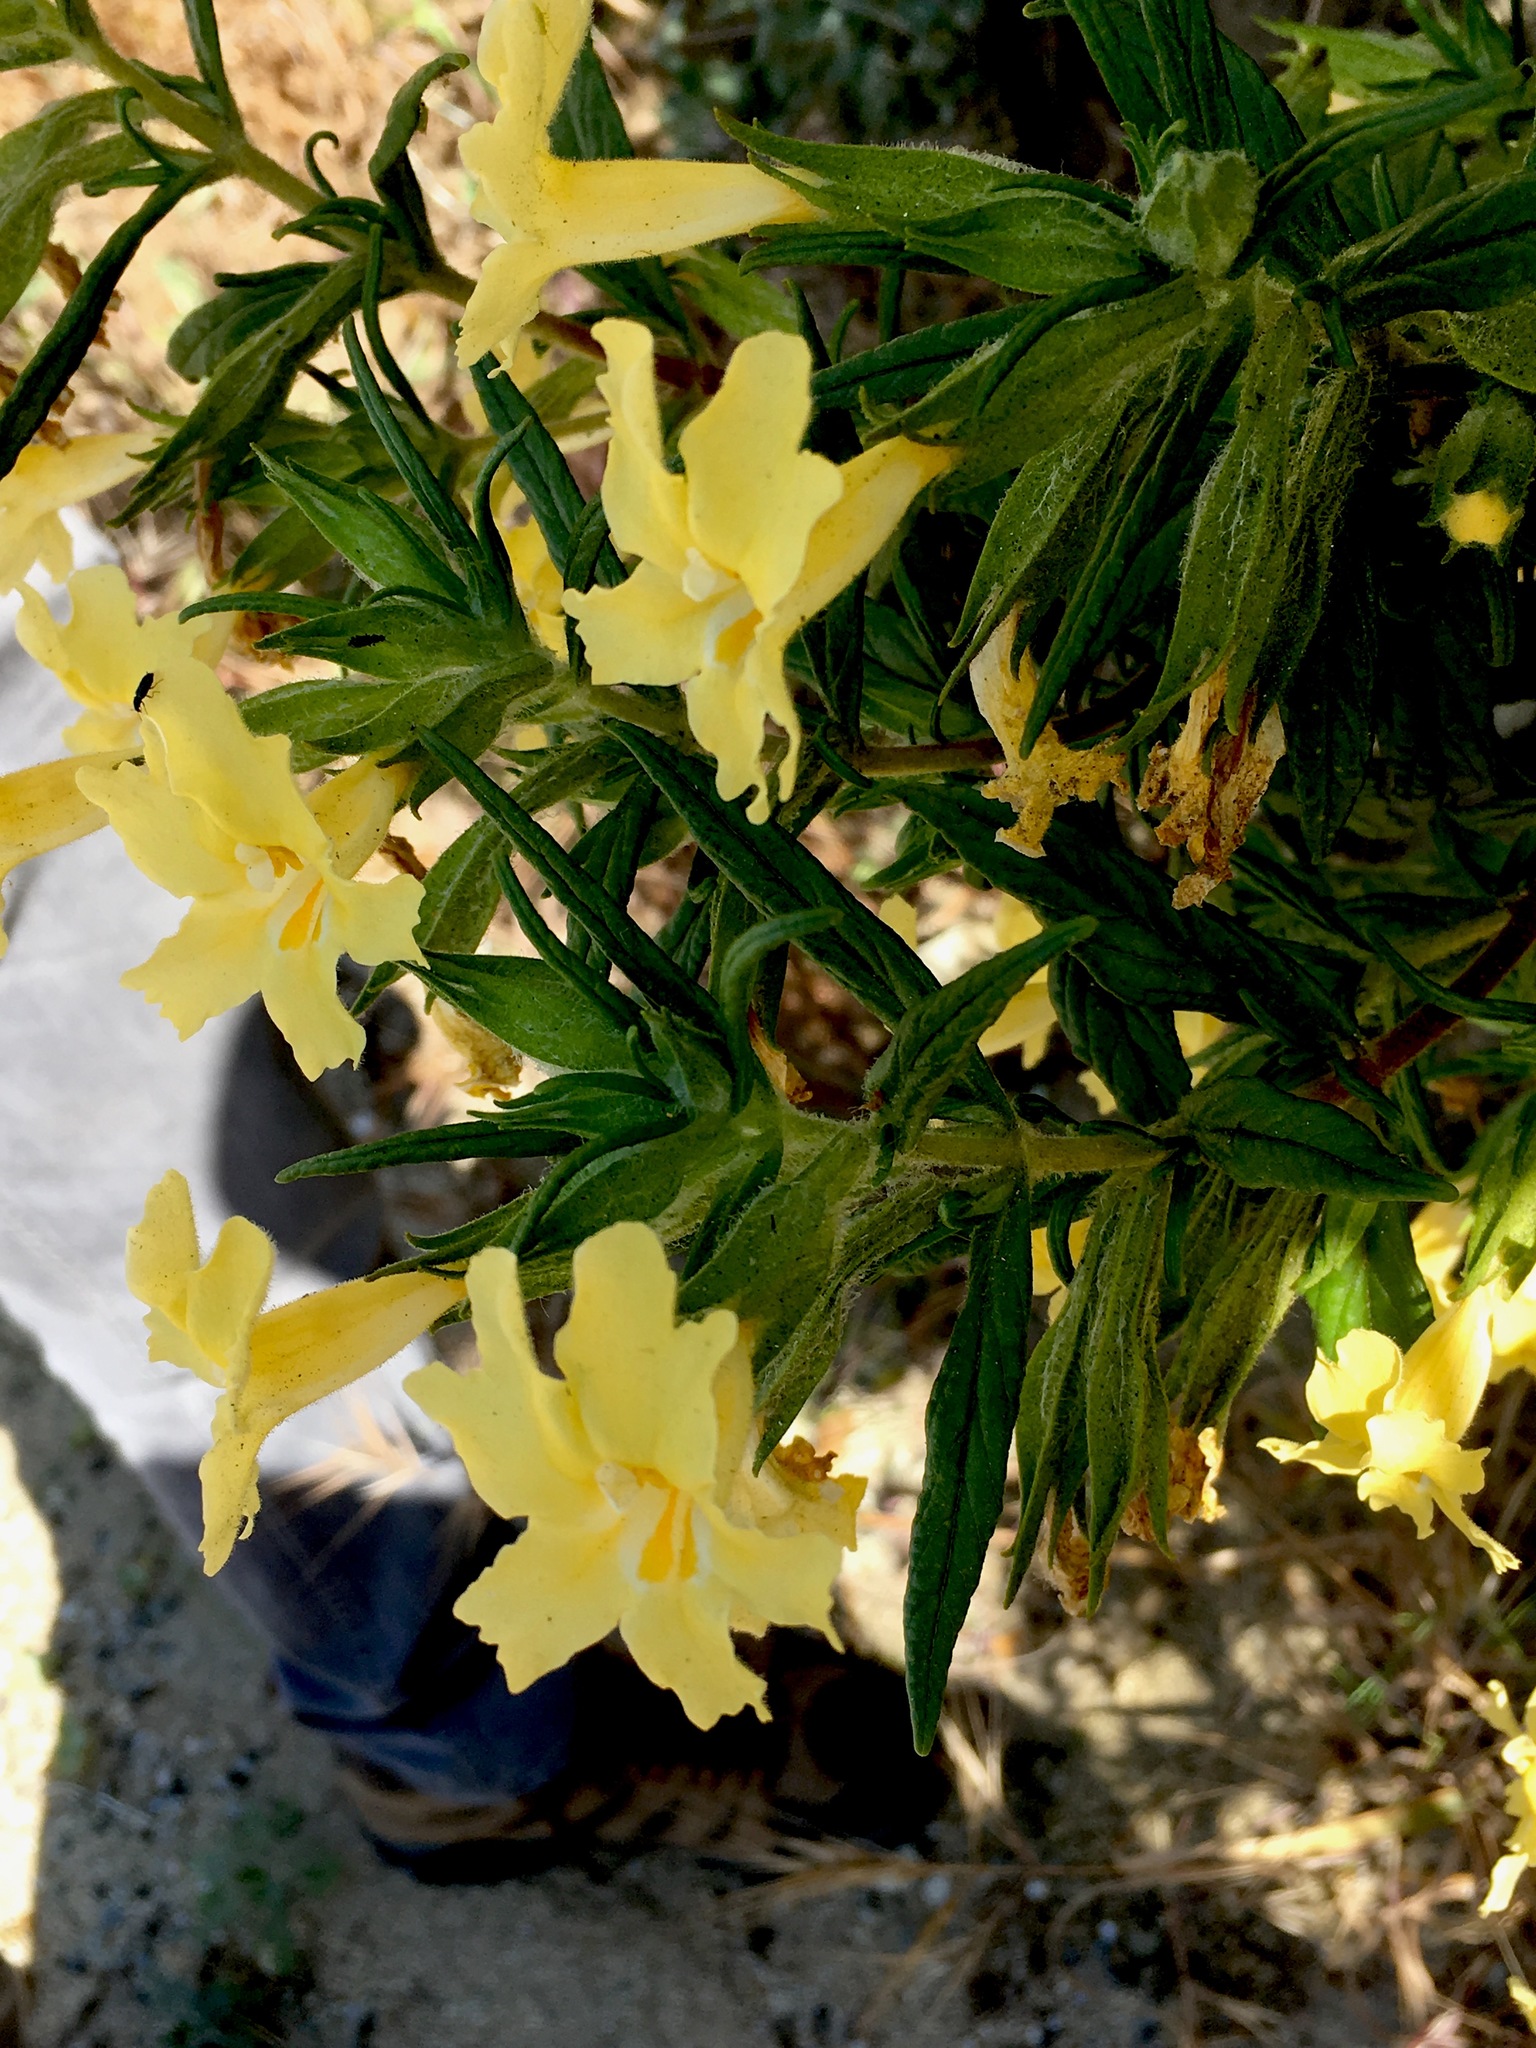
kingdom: Plantae
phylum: Tracheophyta
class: Magnoliopsida
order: Lamiales
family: Phrymaceae
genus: Diplacus
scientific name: Diplacus calycinus
